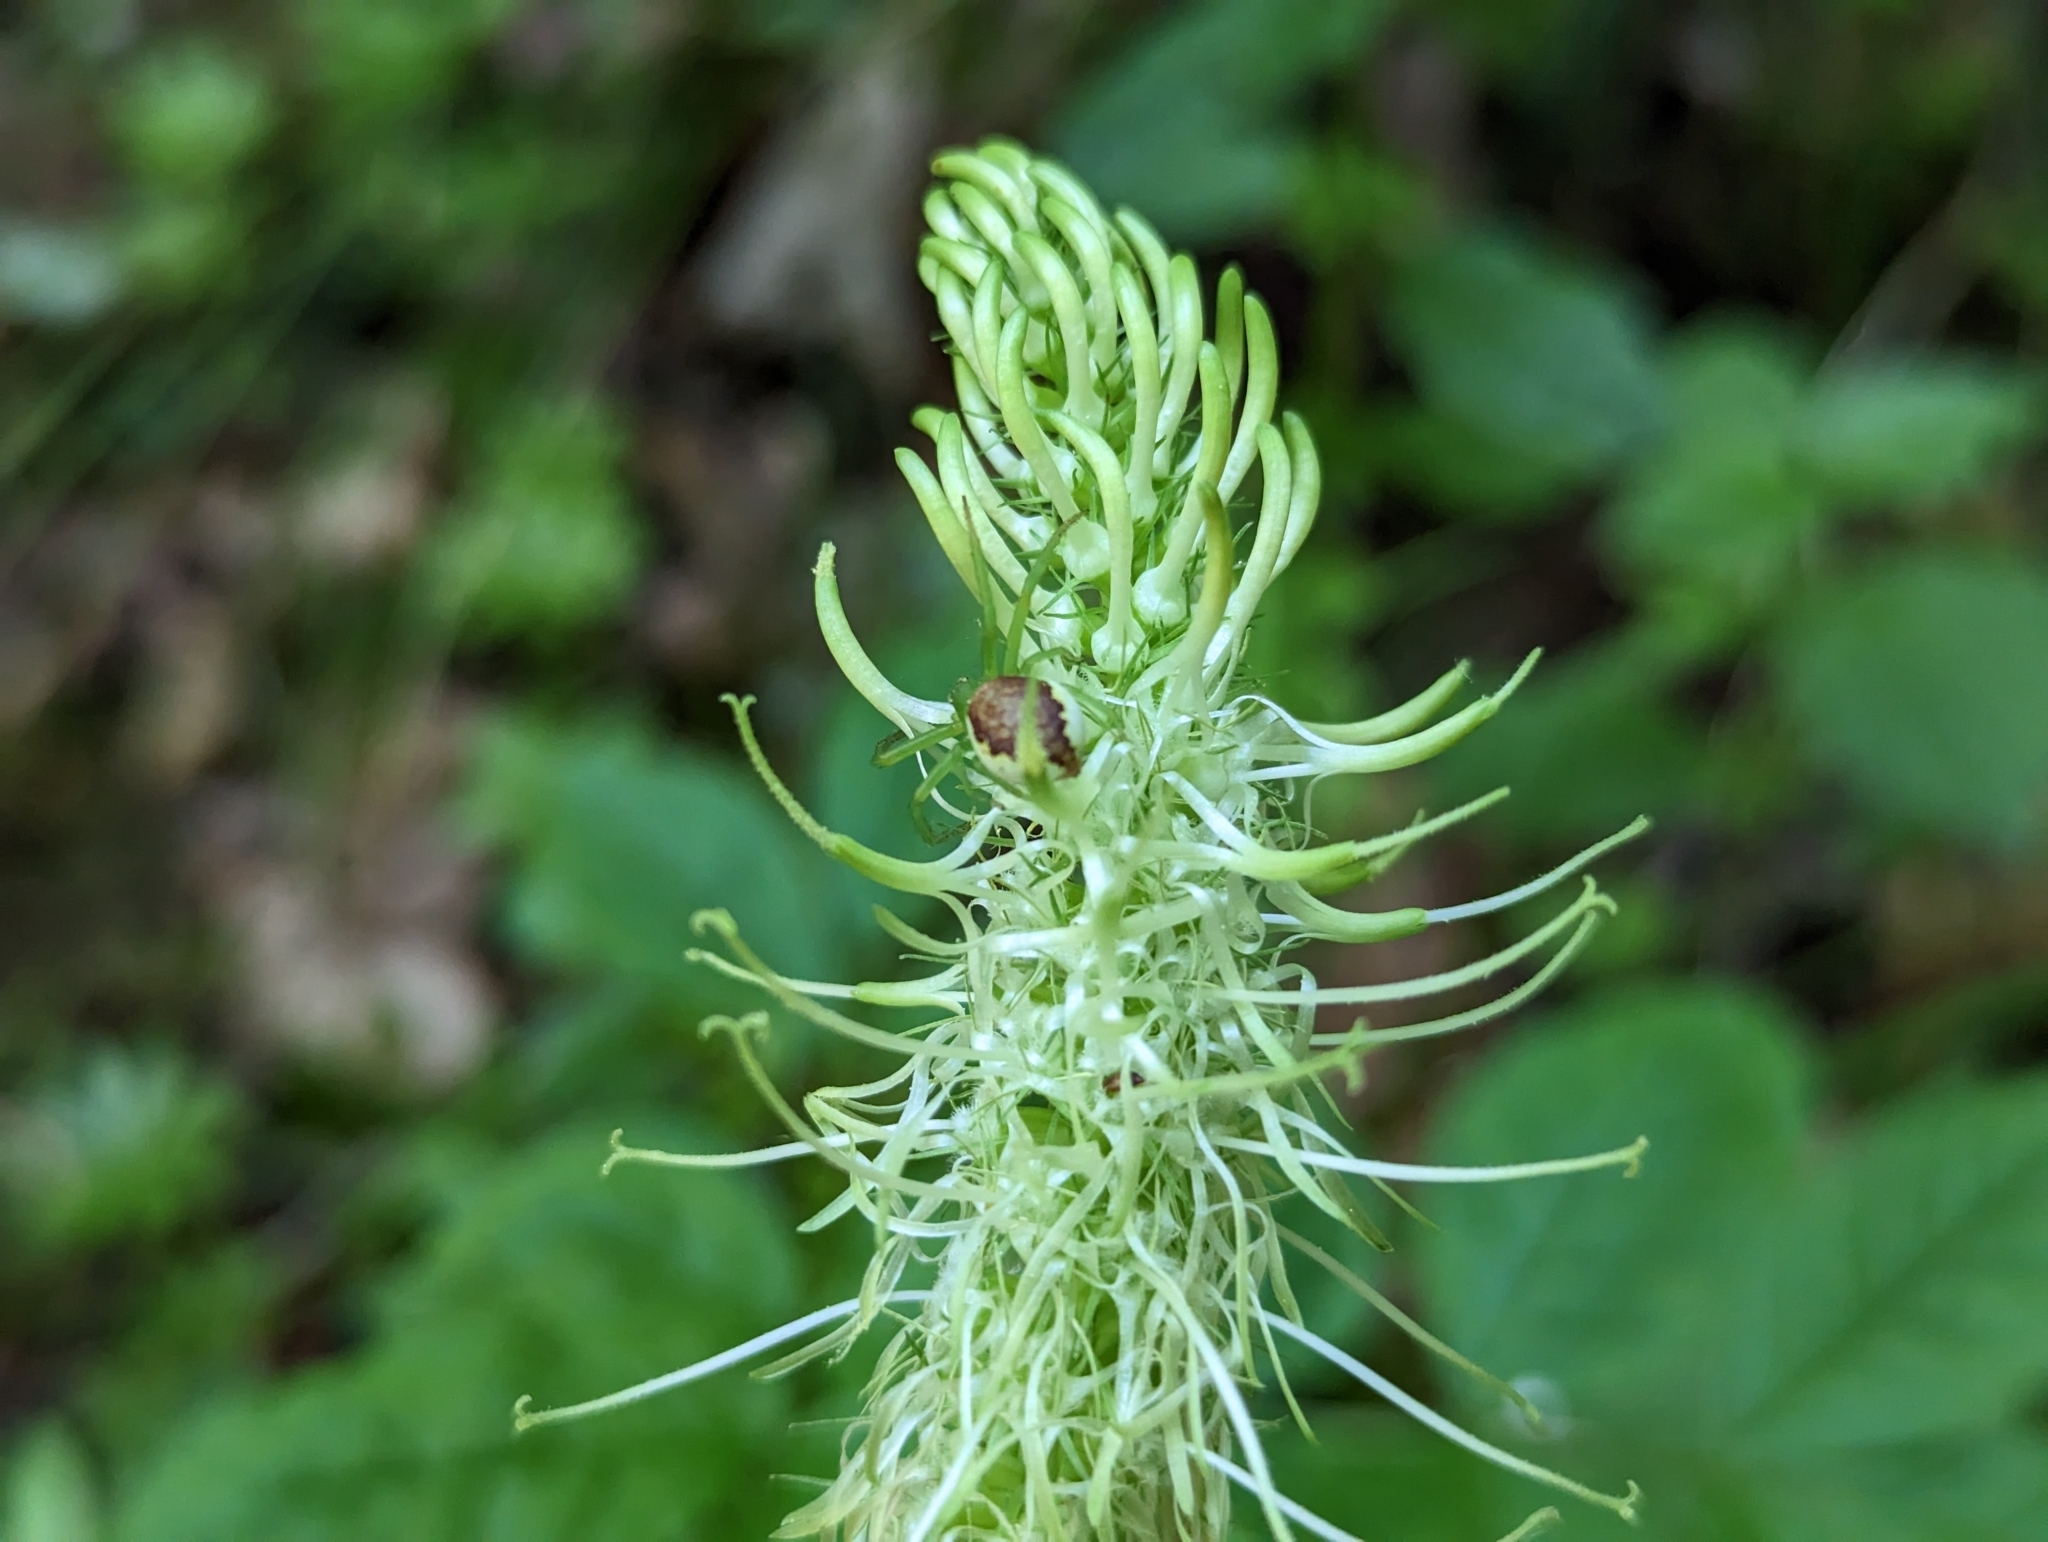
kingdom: Animalia
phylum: Arthropoda
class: Arachnida
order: Araneae
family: Thomisidae
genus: Diaea
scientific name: Diaea dorsata
